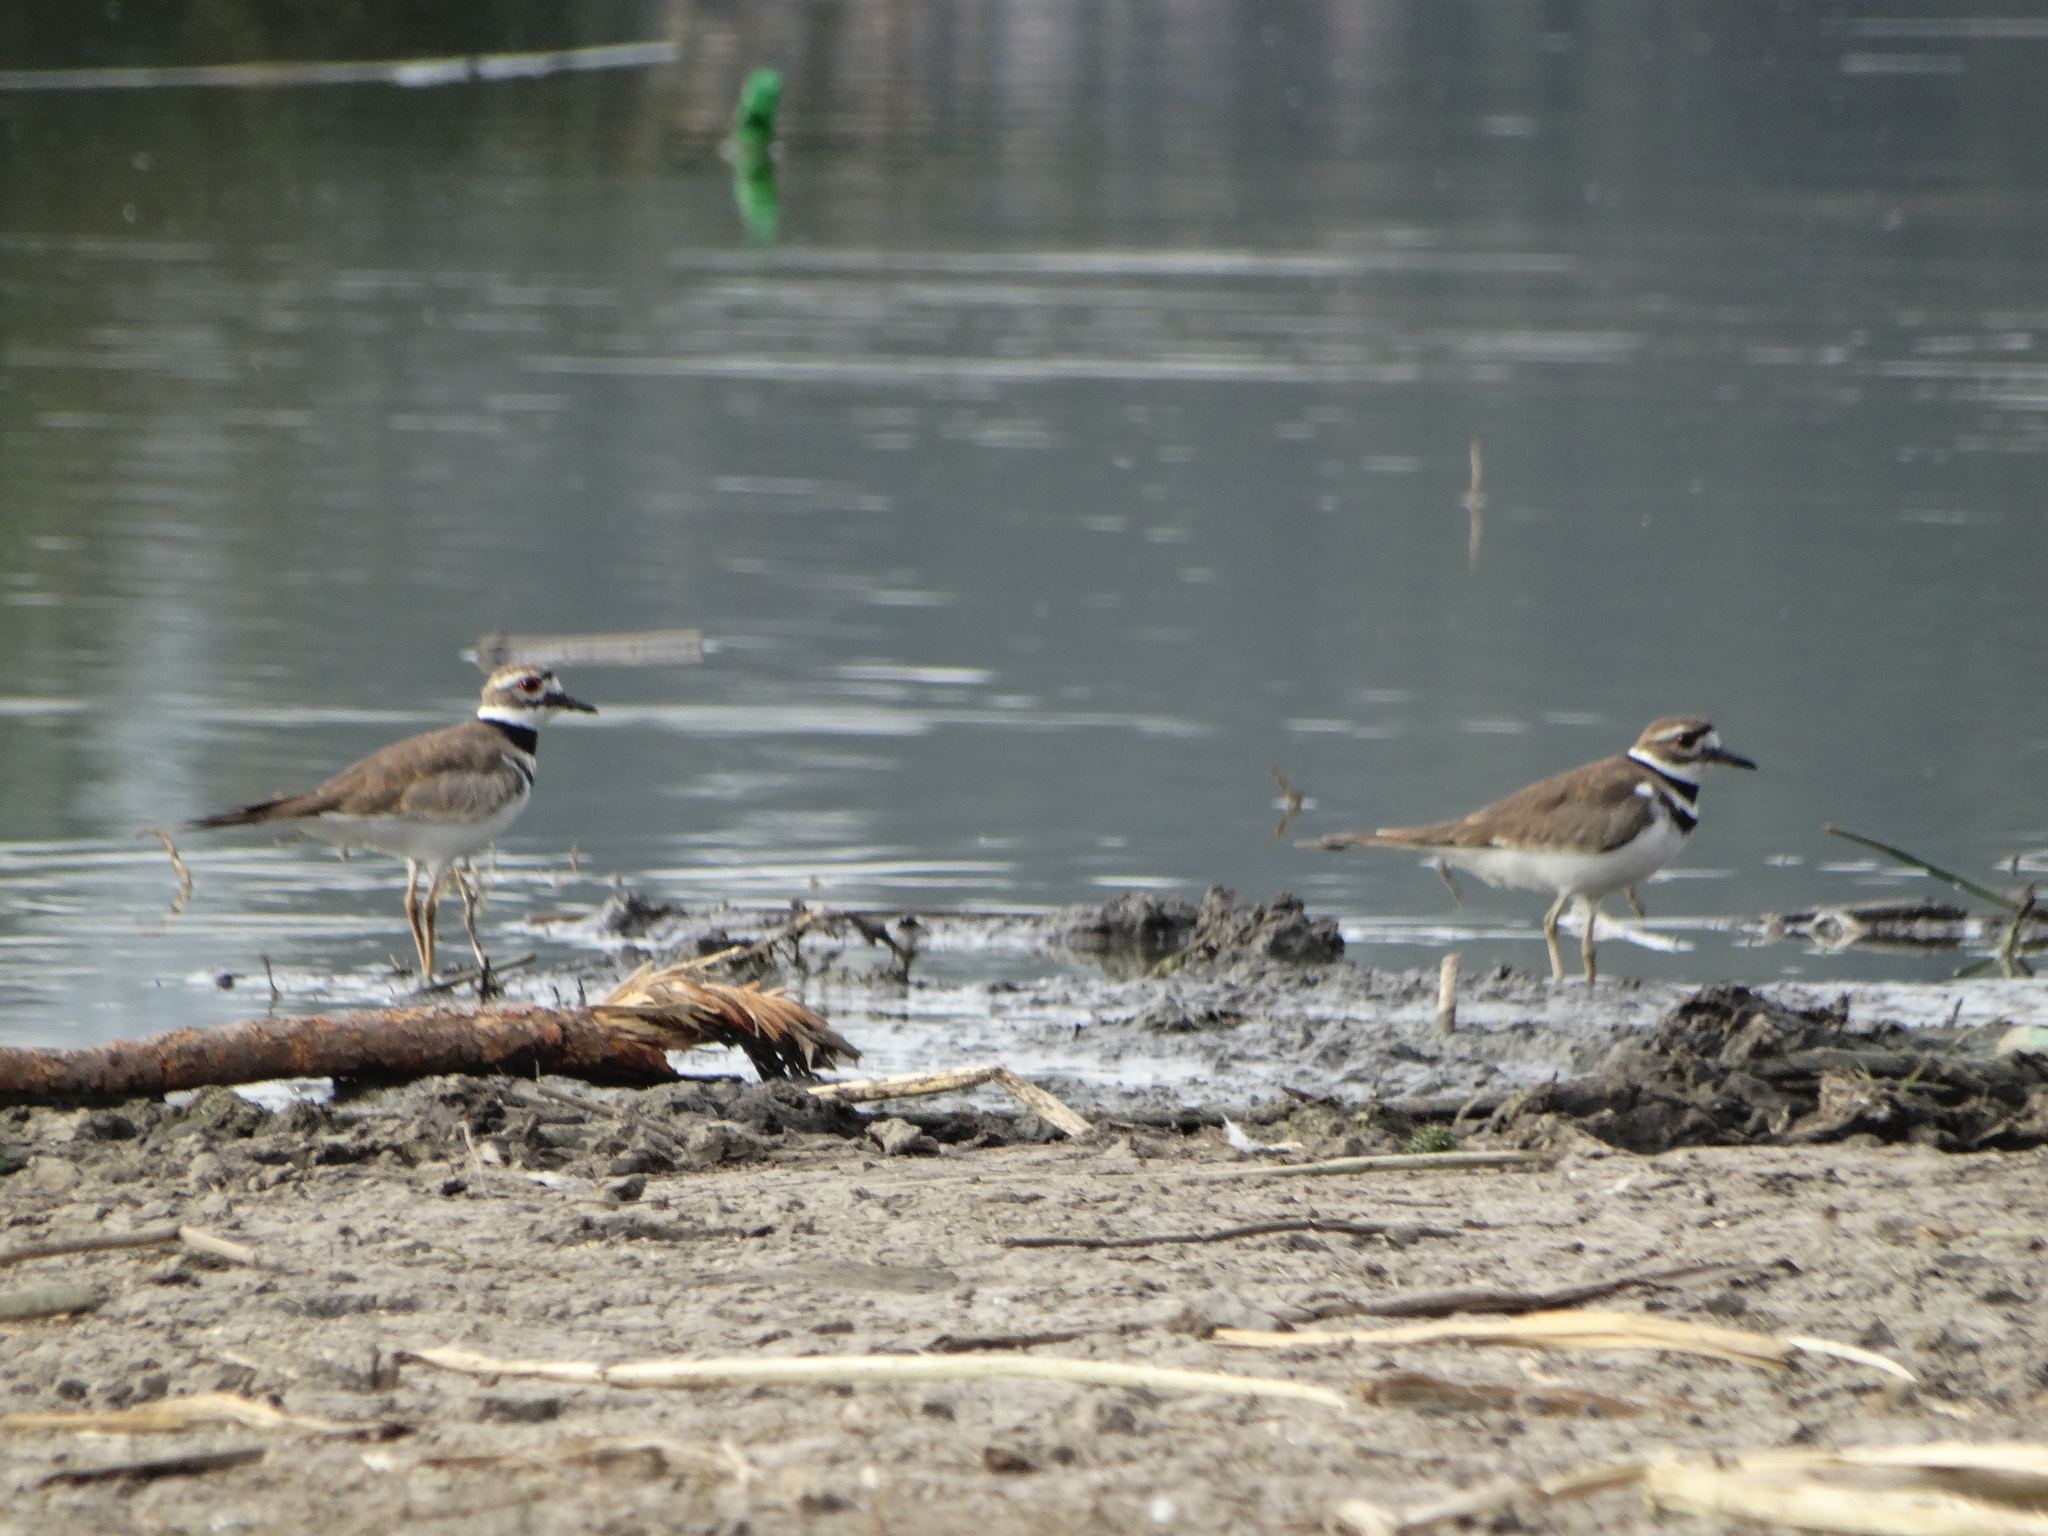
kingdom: Animalia
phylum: Chordata
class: Aves
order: Charadriiformes
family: Charadriidae
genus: Charadrius
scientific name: Charadrius vociferus
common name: Killdeer
